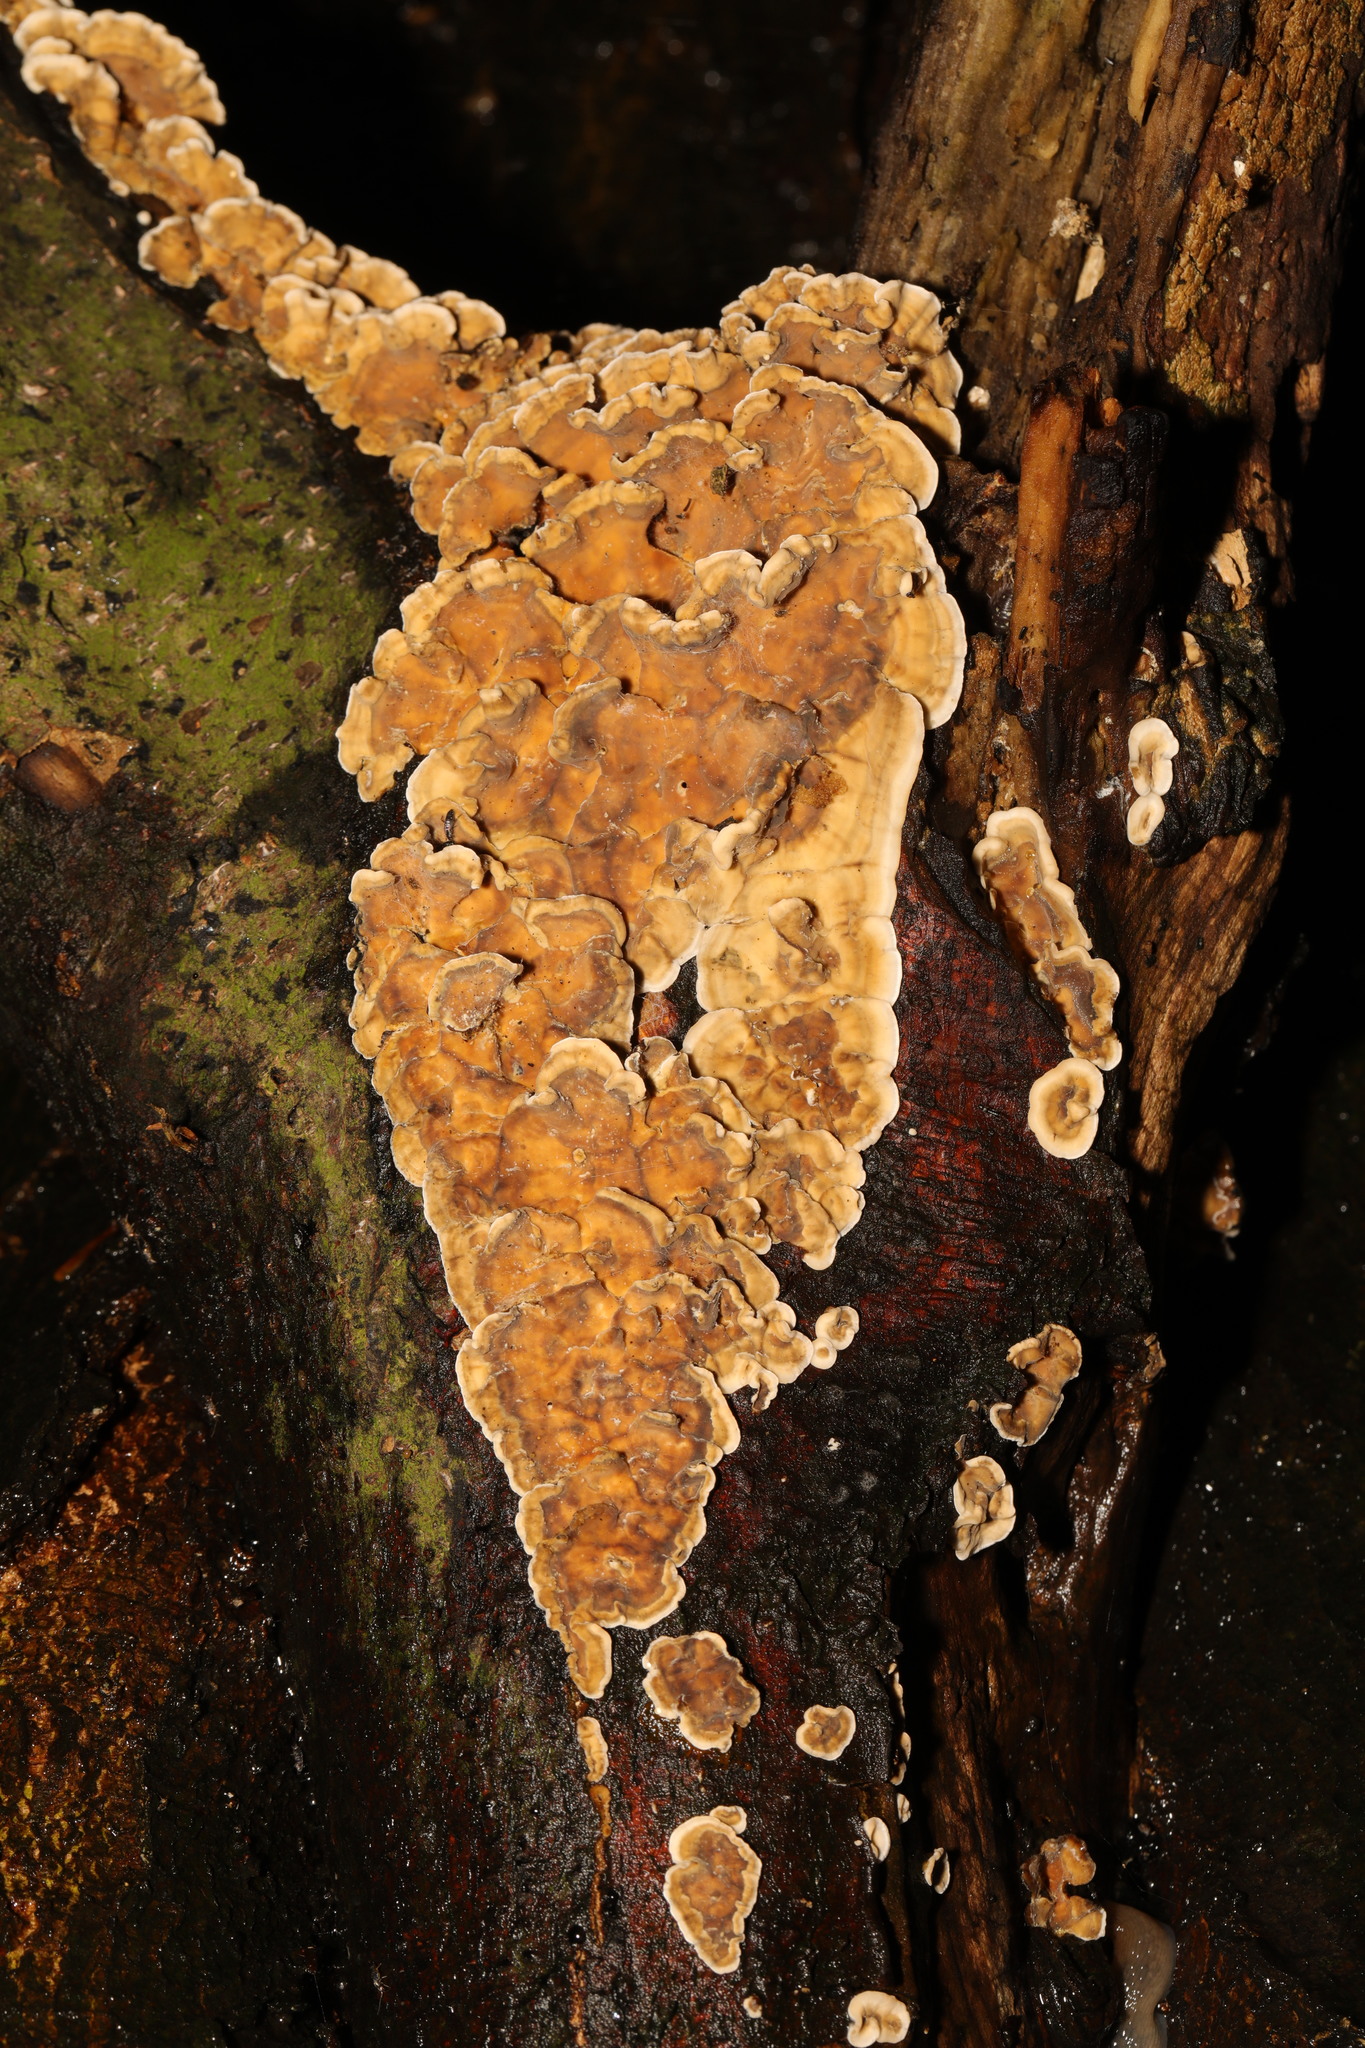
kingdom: Fungi
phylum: Basidiomycota
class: Agaricomycetes
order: Russulales
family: Stereaceae
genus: Stereum
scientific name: Stereum hirsutum
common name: Hairy curtain crust
